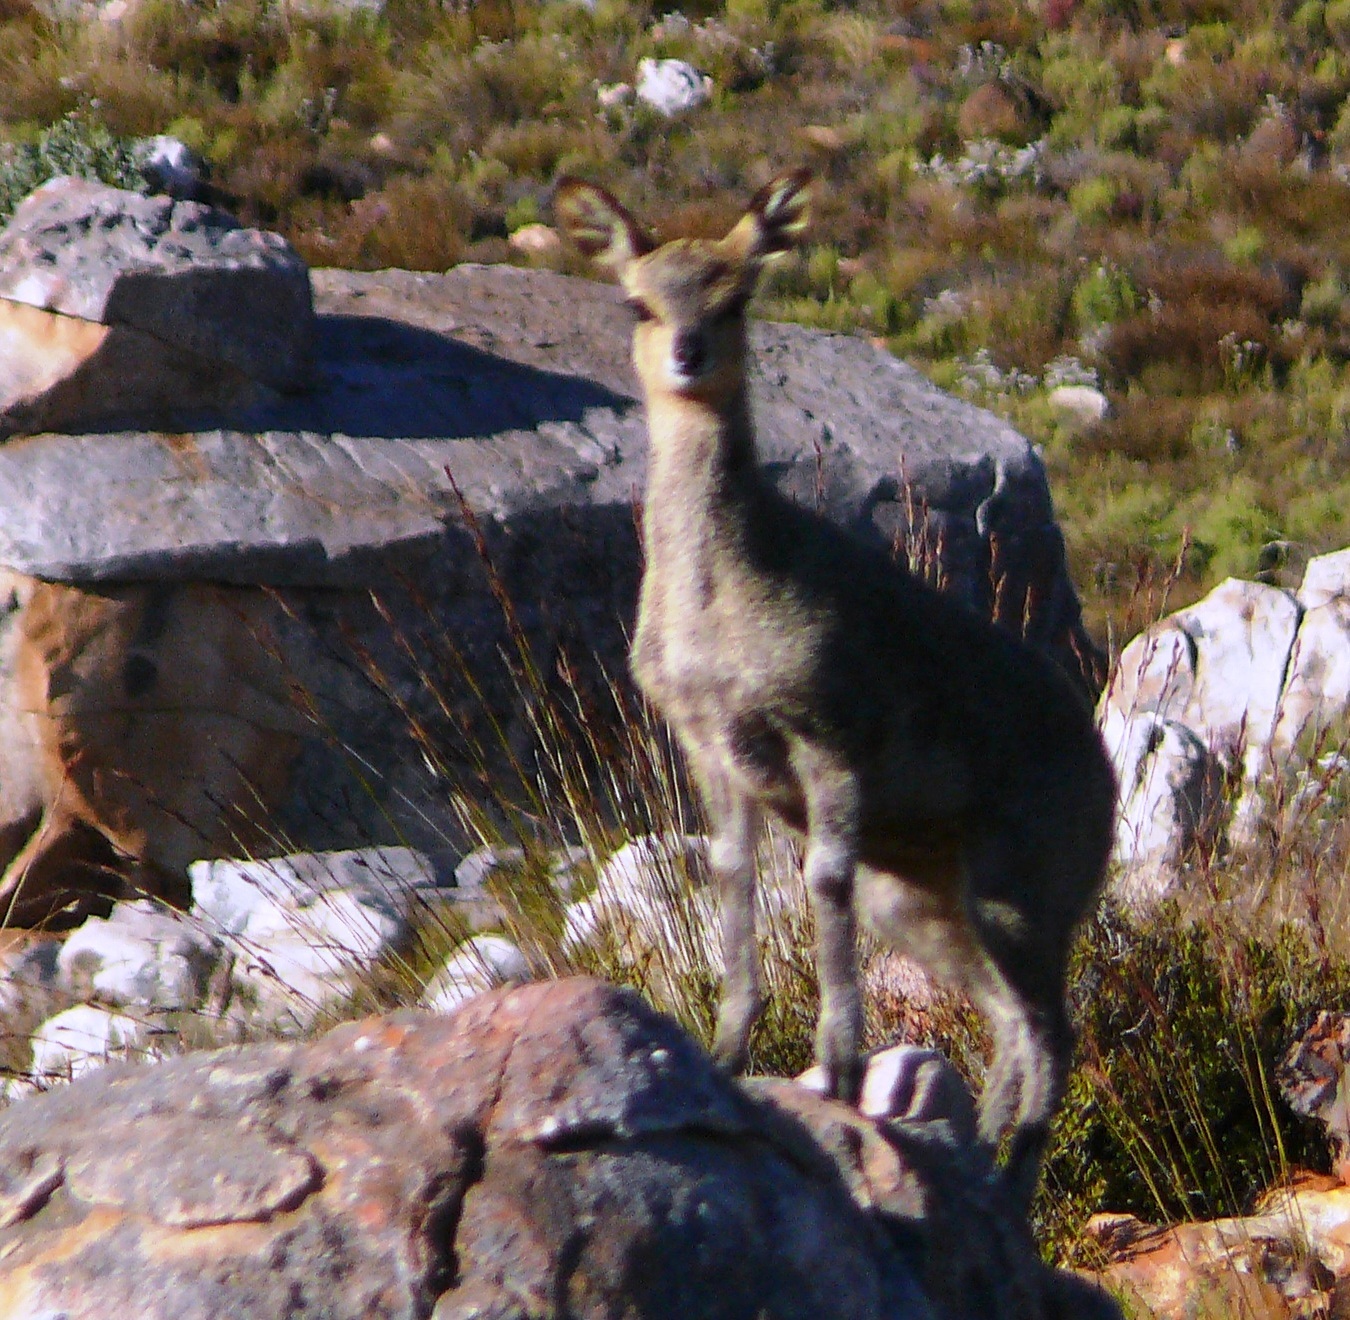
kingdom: Animalia
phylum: Chordata
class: Mammalia
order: Artiodactyla
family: Bovidae
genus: Oreotragus
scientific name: Oreotragus oreotragus
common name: Klipspringer
